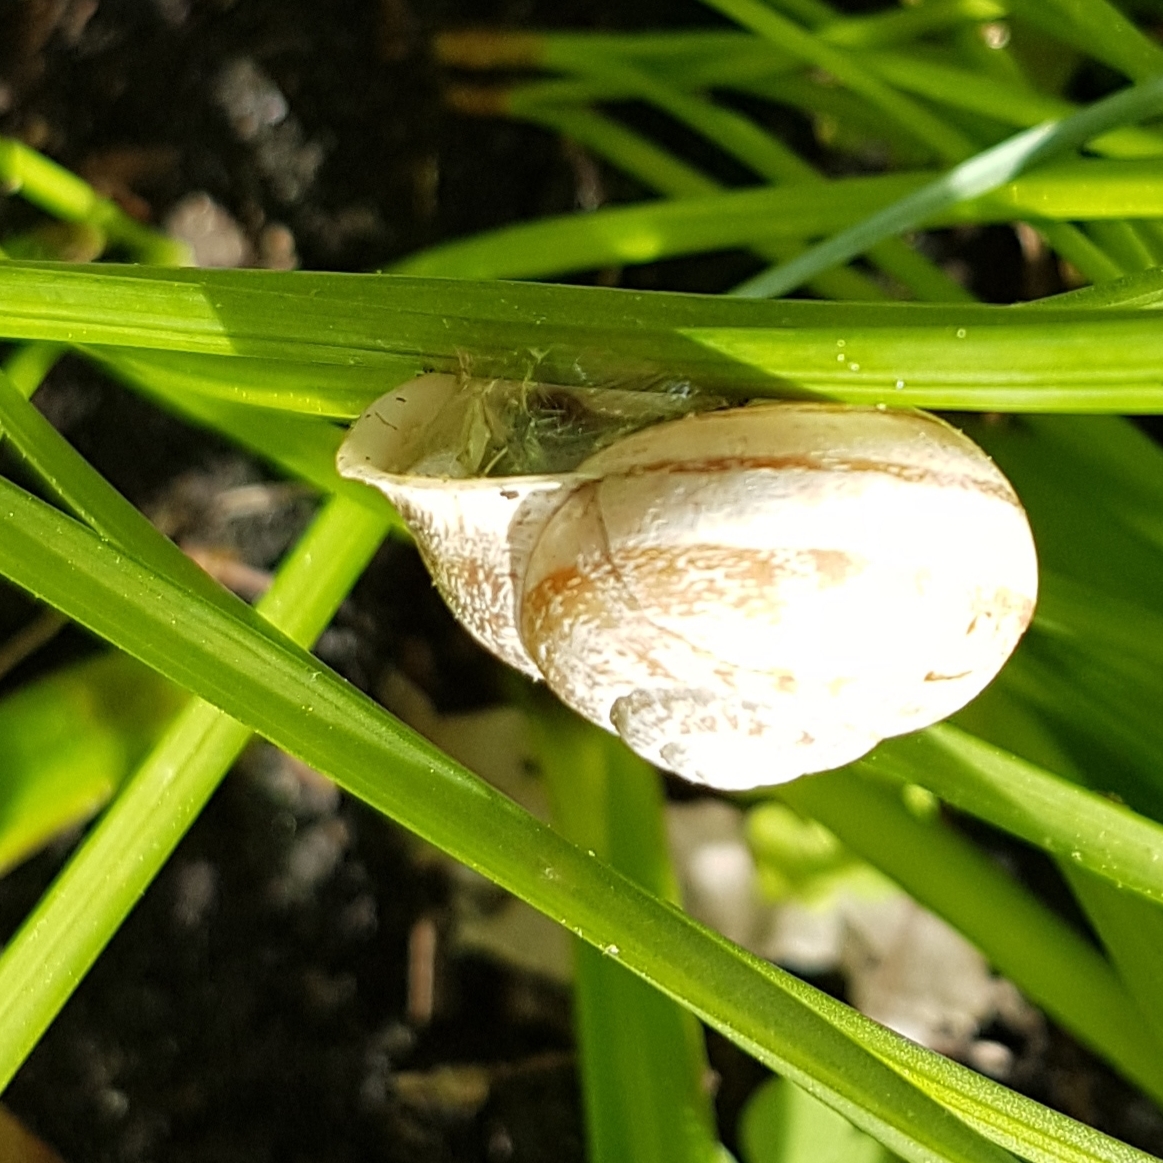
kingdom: Animalia
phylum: Mollusca
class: Gastropoda
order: Stylommatophora
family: Helicidae
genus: Eobania
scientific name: Eobania vermiculata
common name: Chocolateband snail
